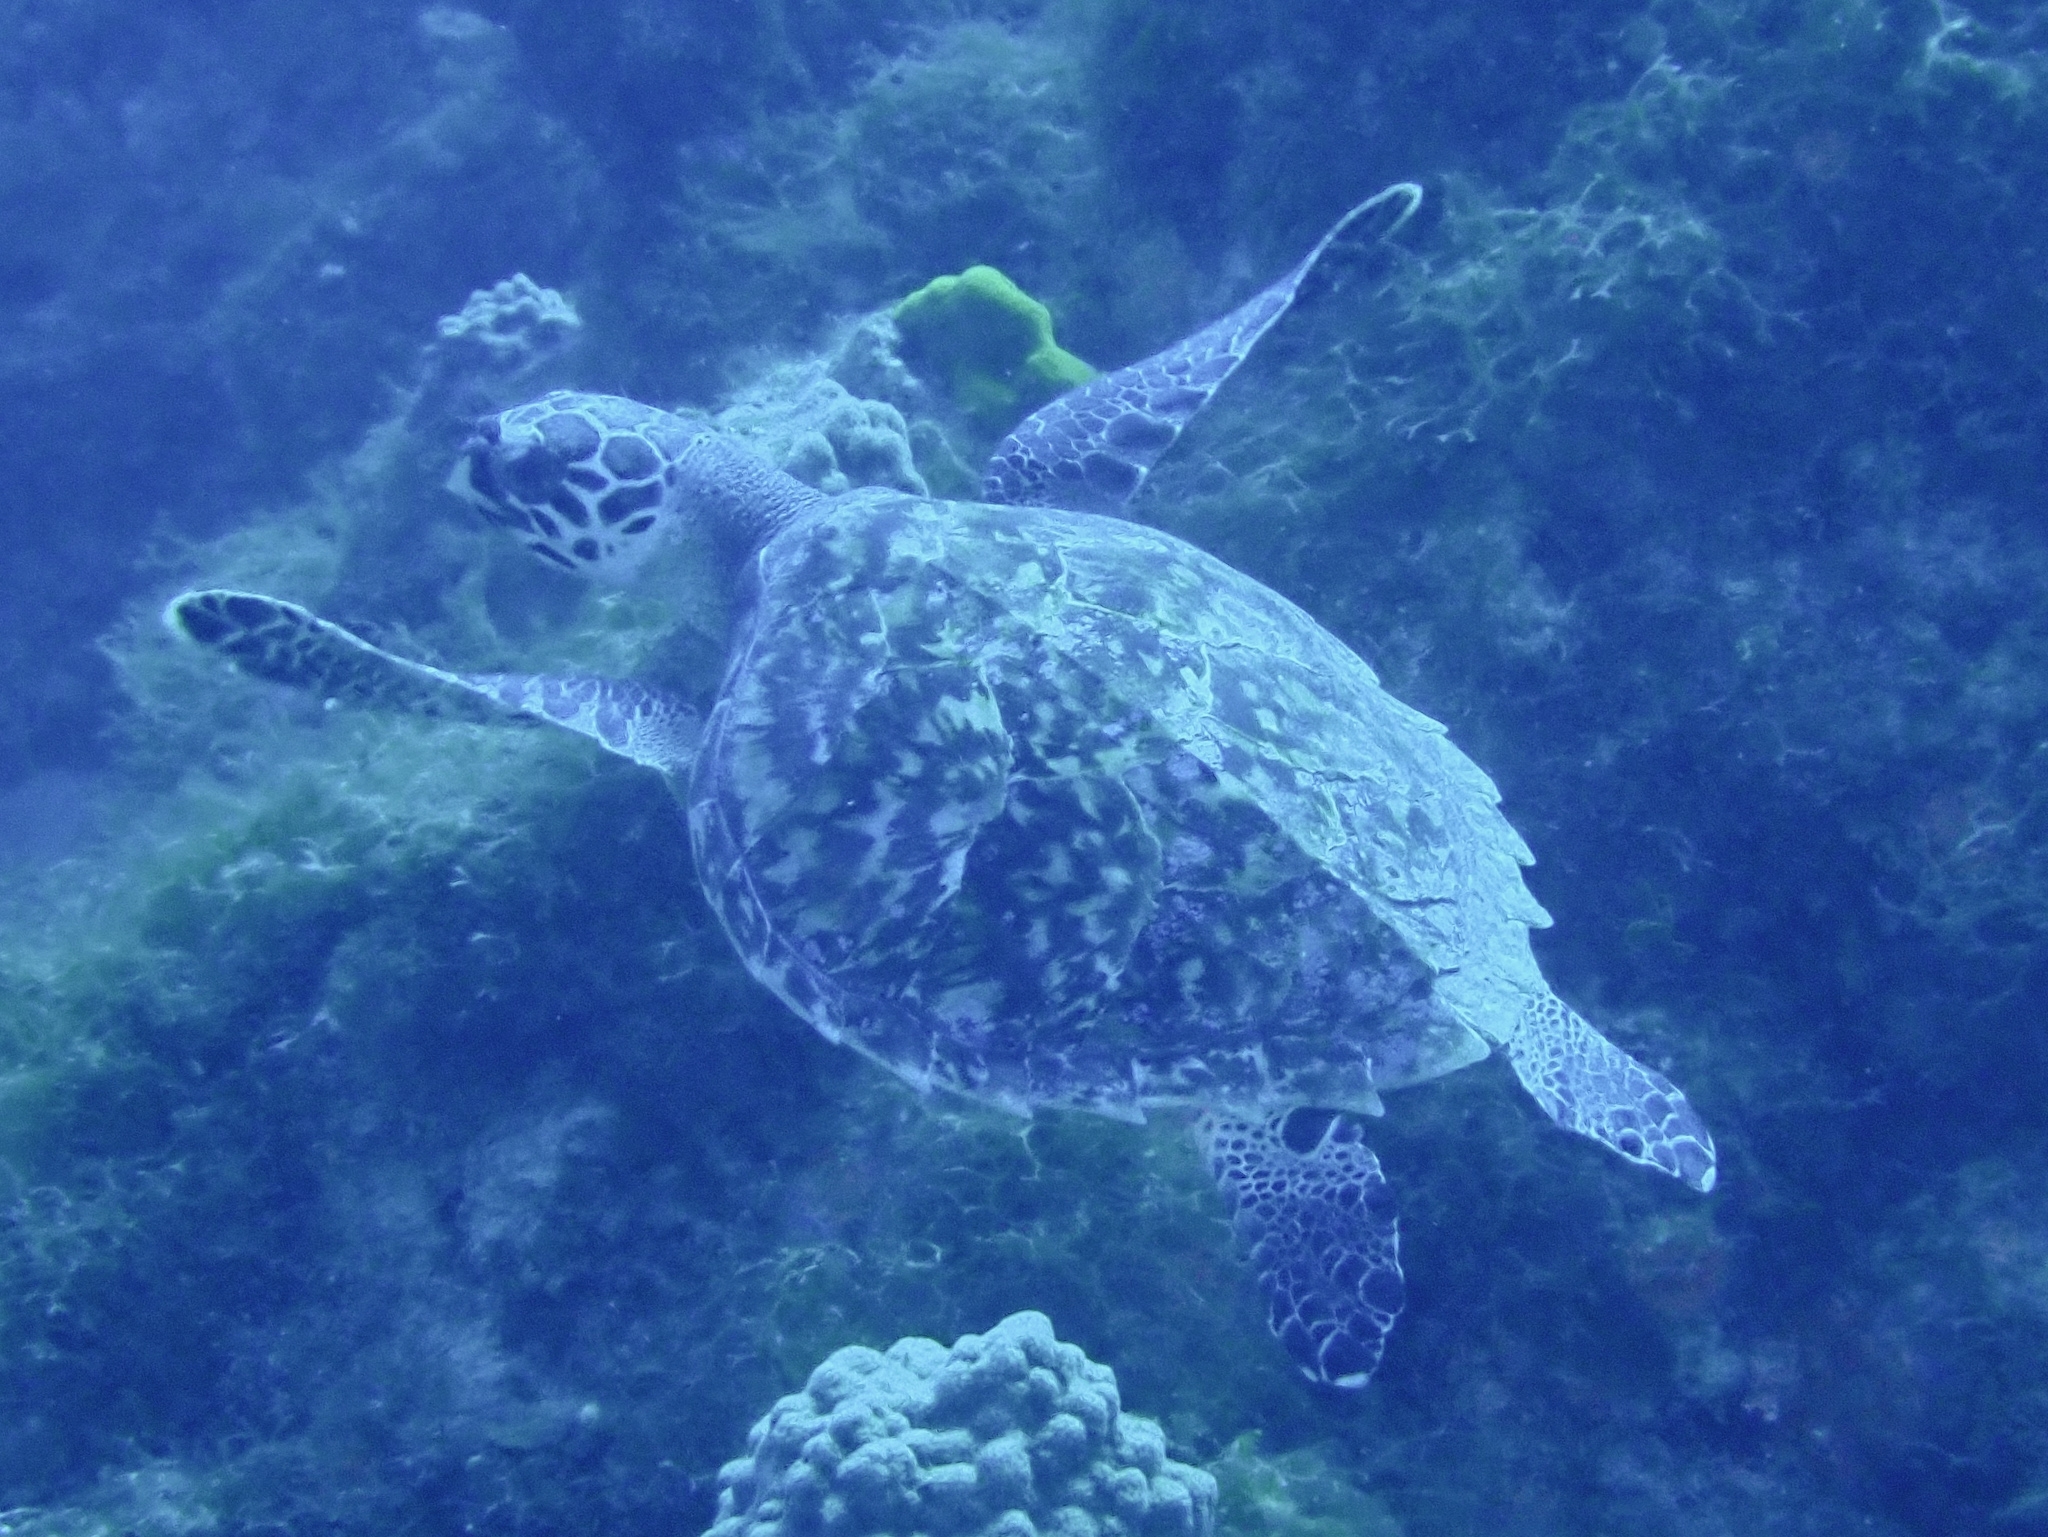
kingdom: Animalia
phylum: Chordata
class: Testudines
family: Cheloniidae
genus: Eretmochelys
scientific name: Eretmochelys imbricata
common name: Hawksbill turtle
